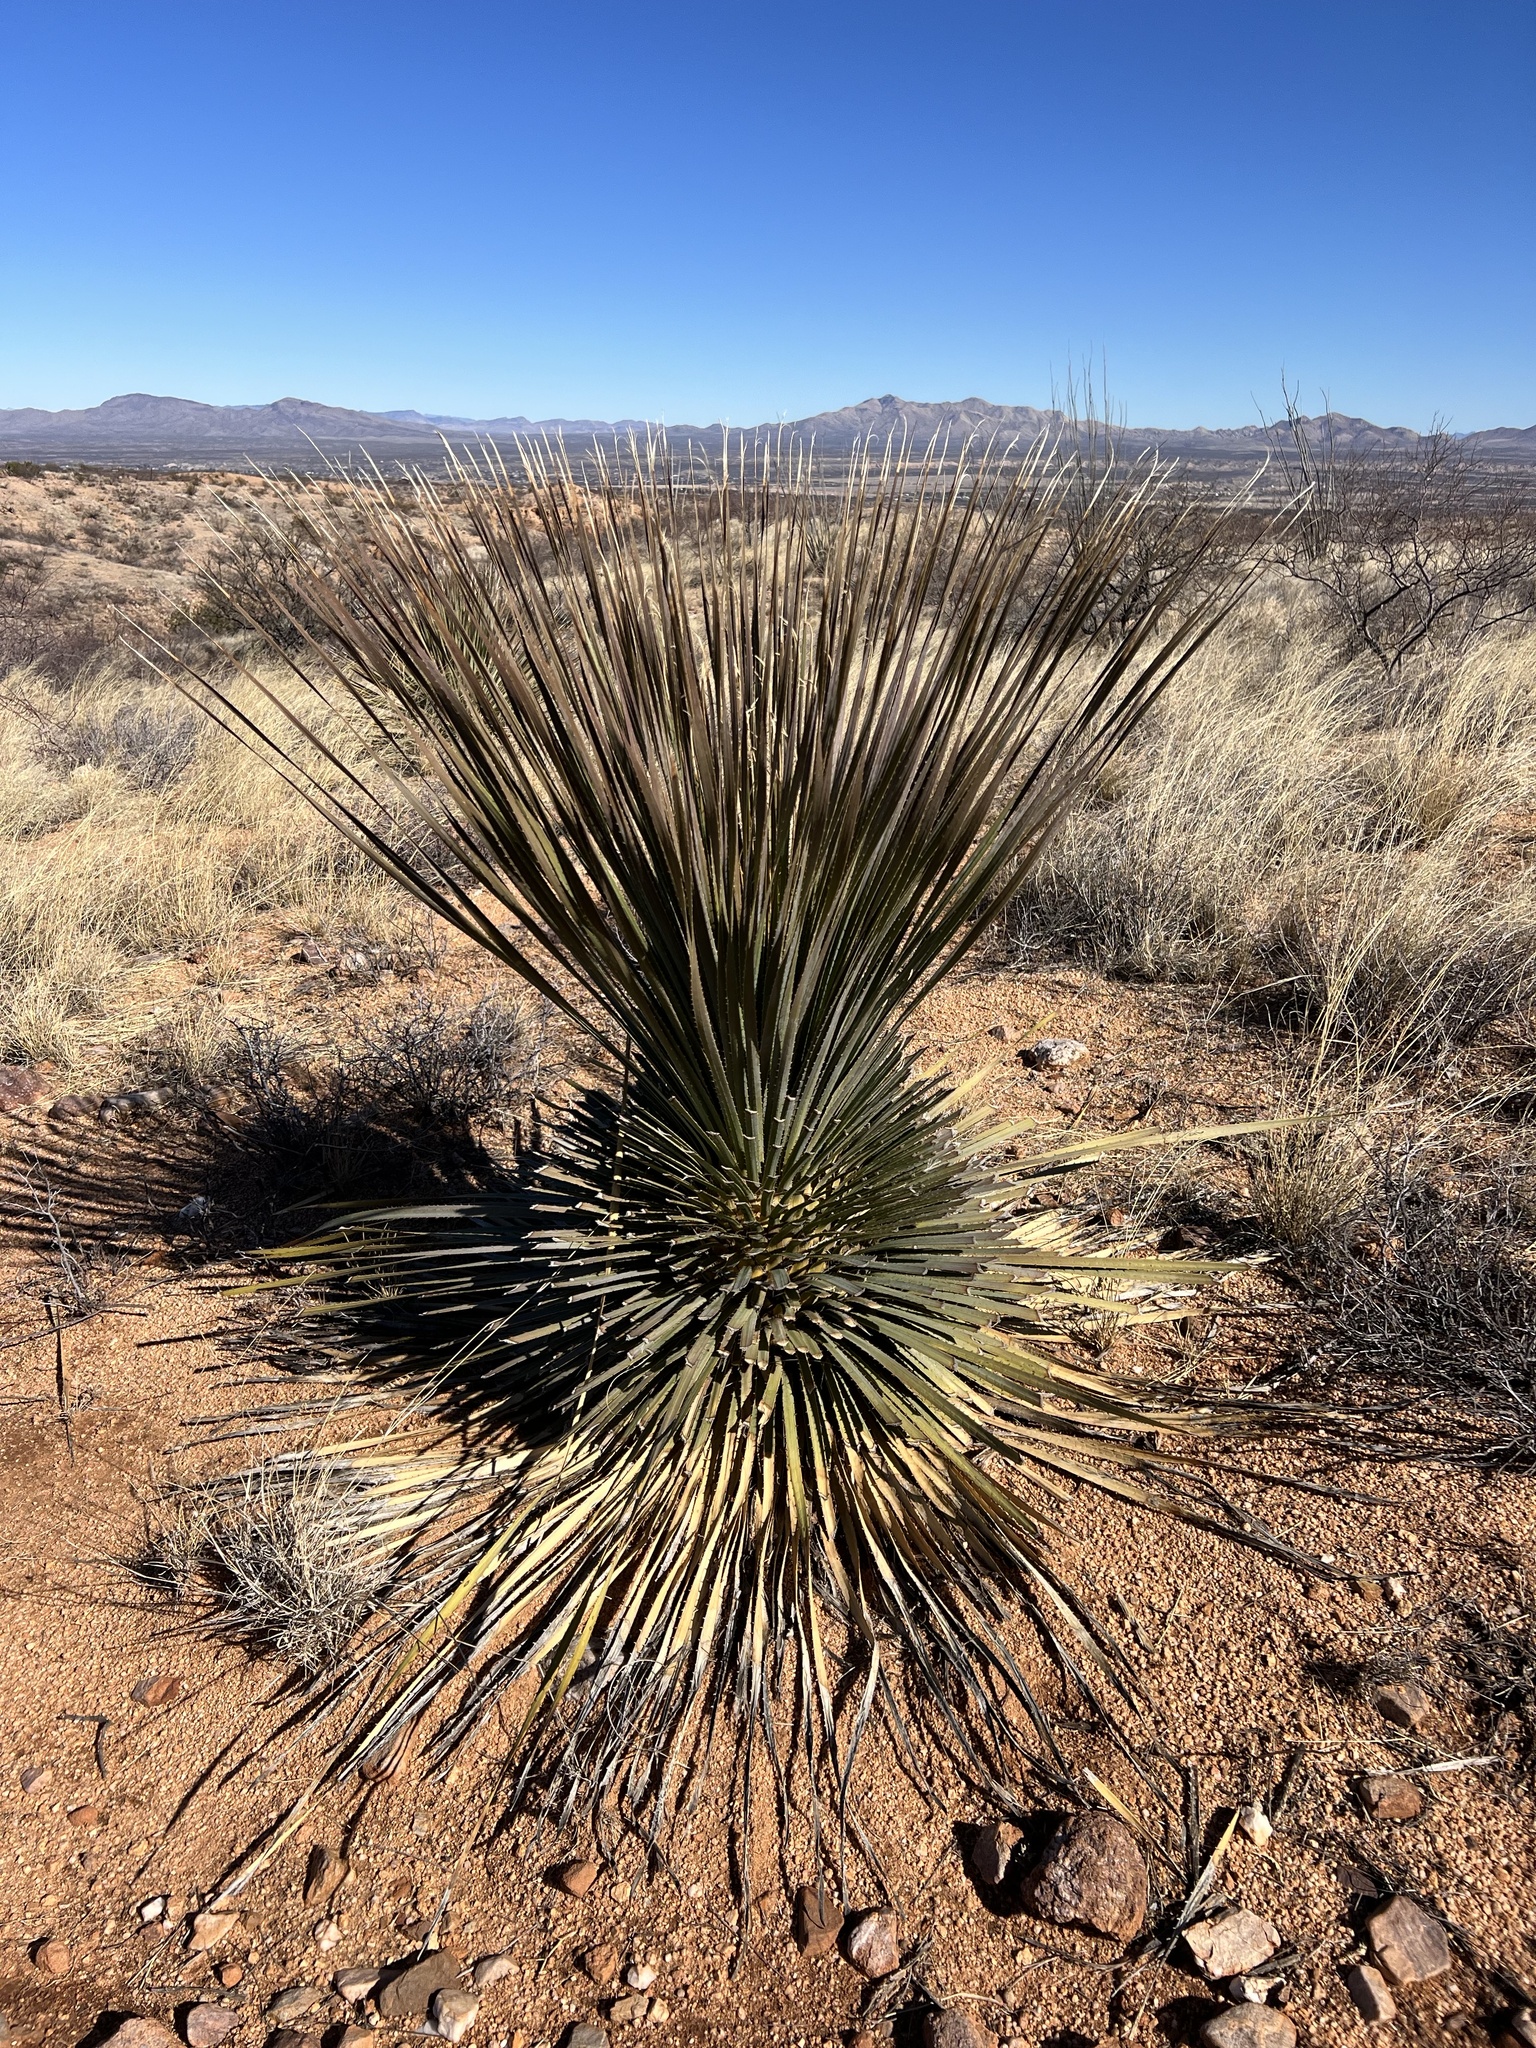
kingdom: Plantae
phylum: Tracheophyta
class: Liliopsida
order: Asparagales
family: Asparagaceae
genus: Dasylirion
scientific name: Dasylirion wheeleri
